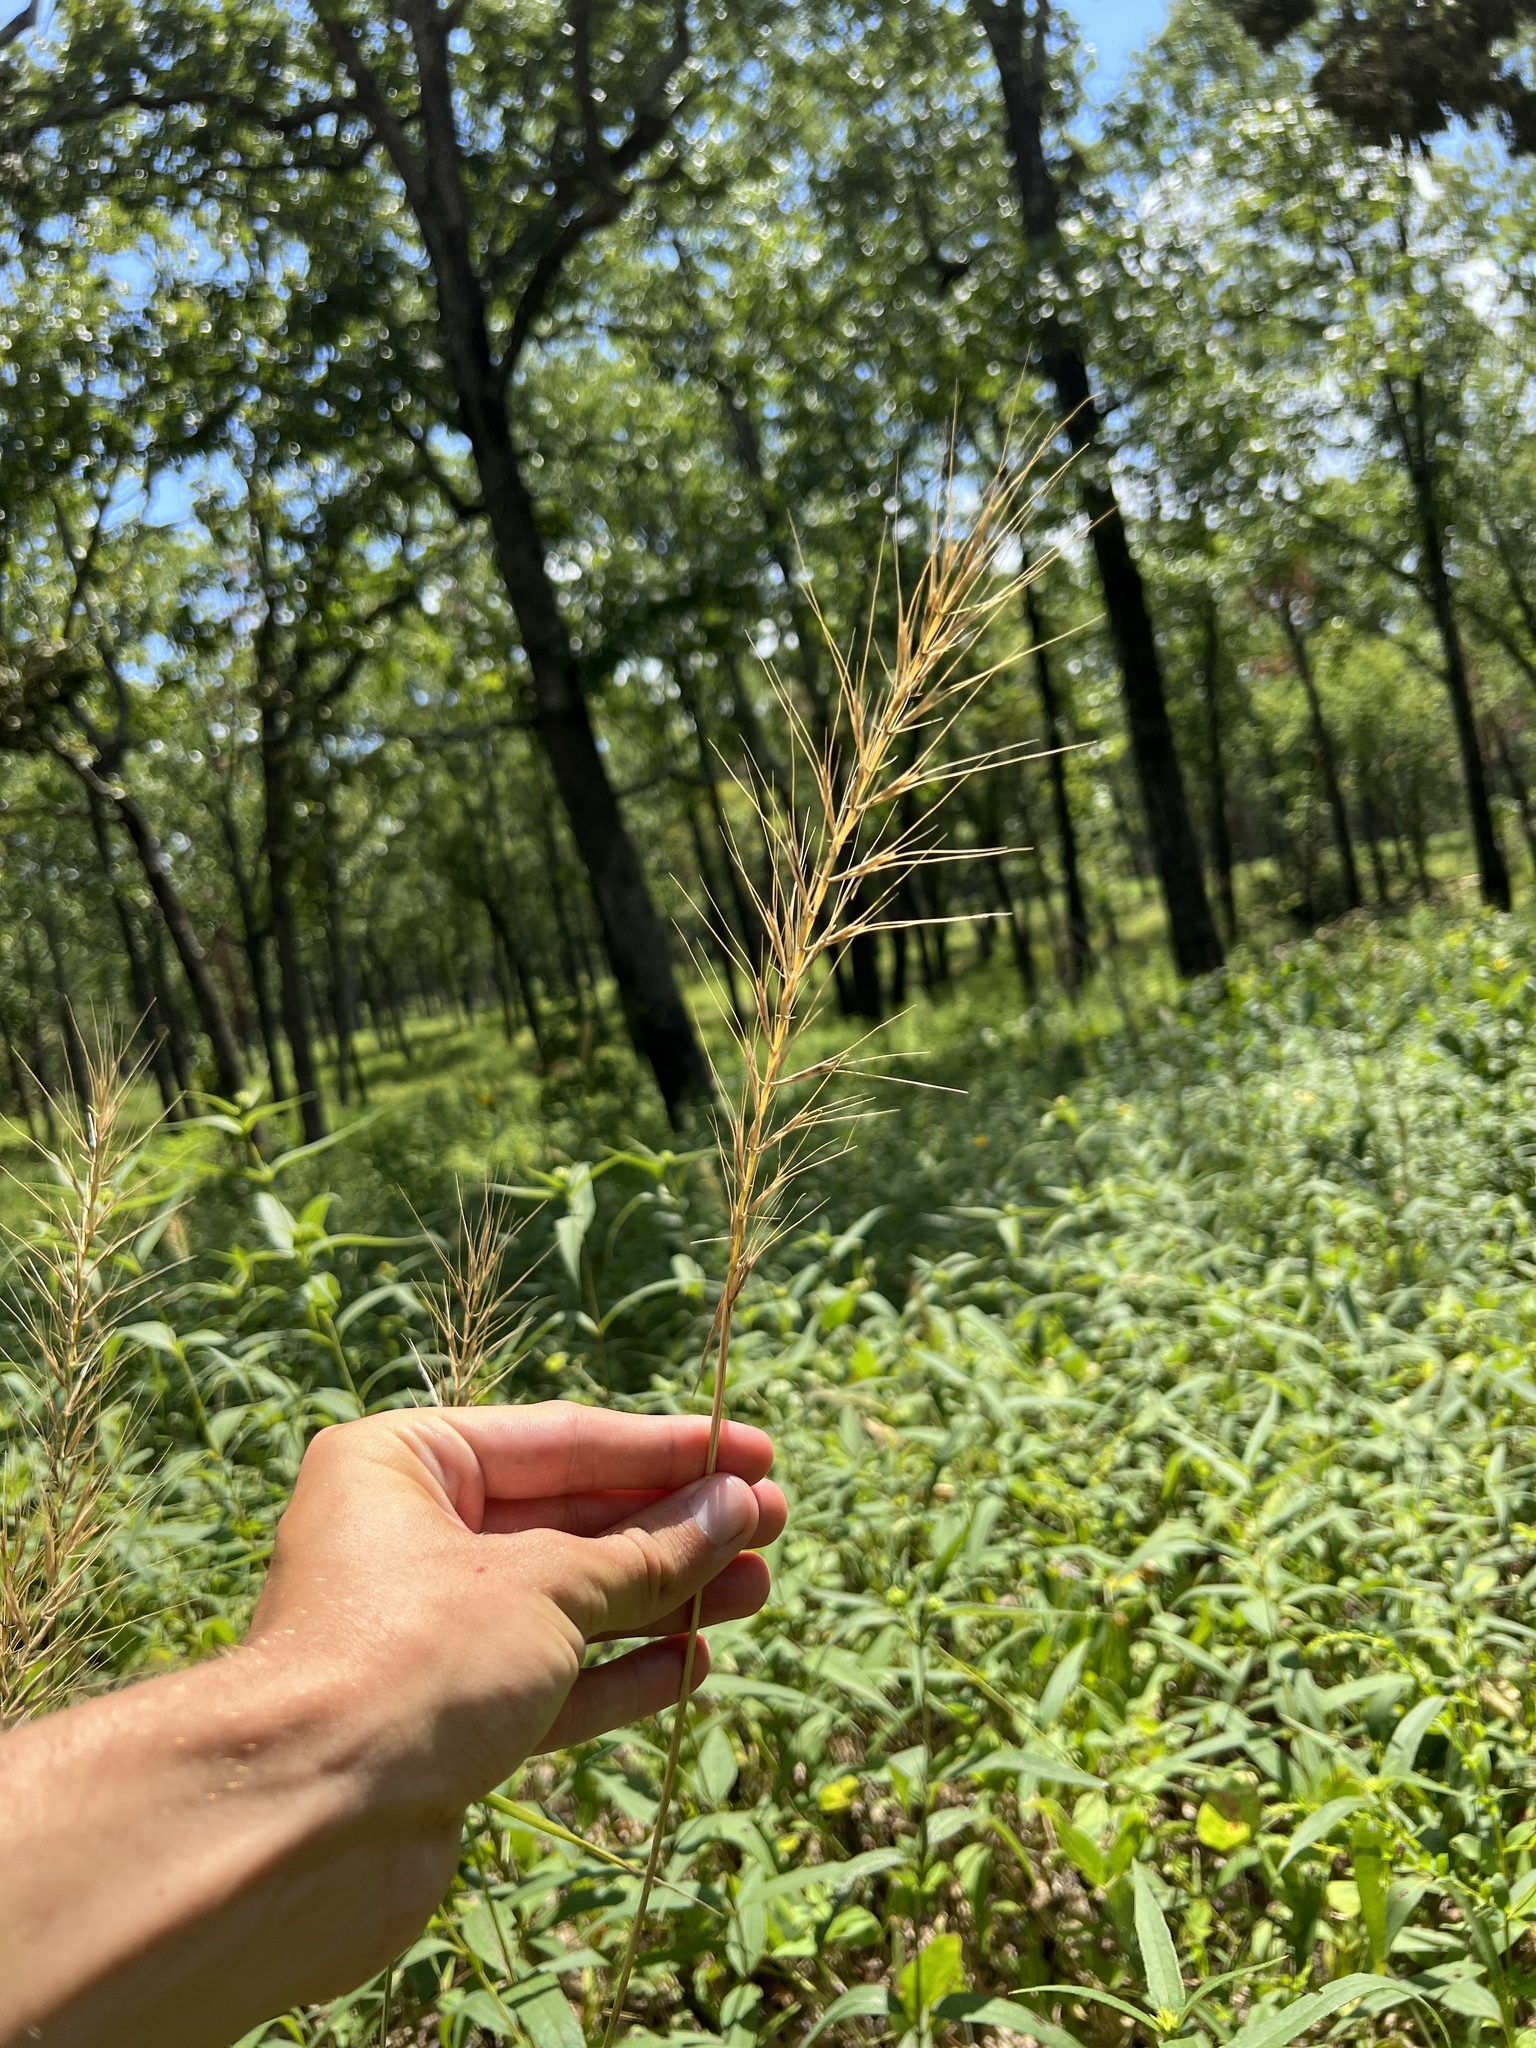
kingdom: Plantae
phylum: Tracheophyta
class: Liliopsida
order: Poales
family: Poaceae
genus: Elymus
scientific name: Elymus hystrix
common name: Bottlebrush grass
